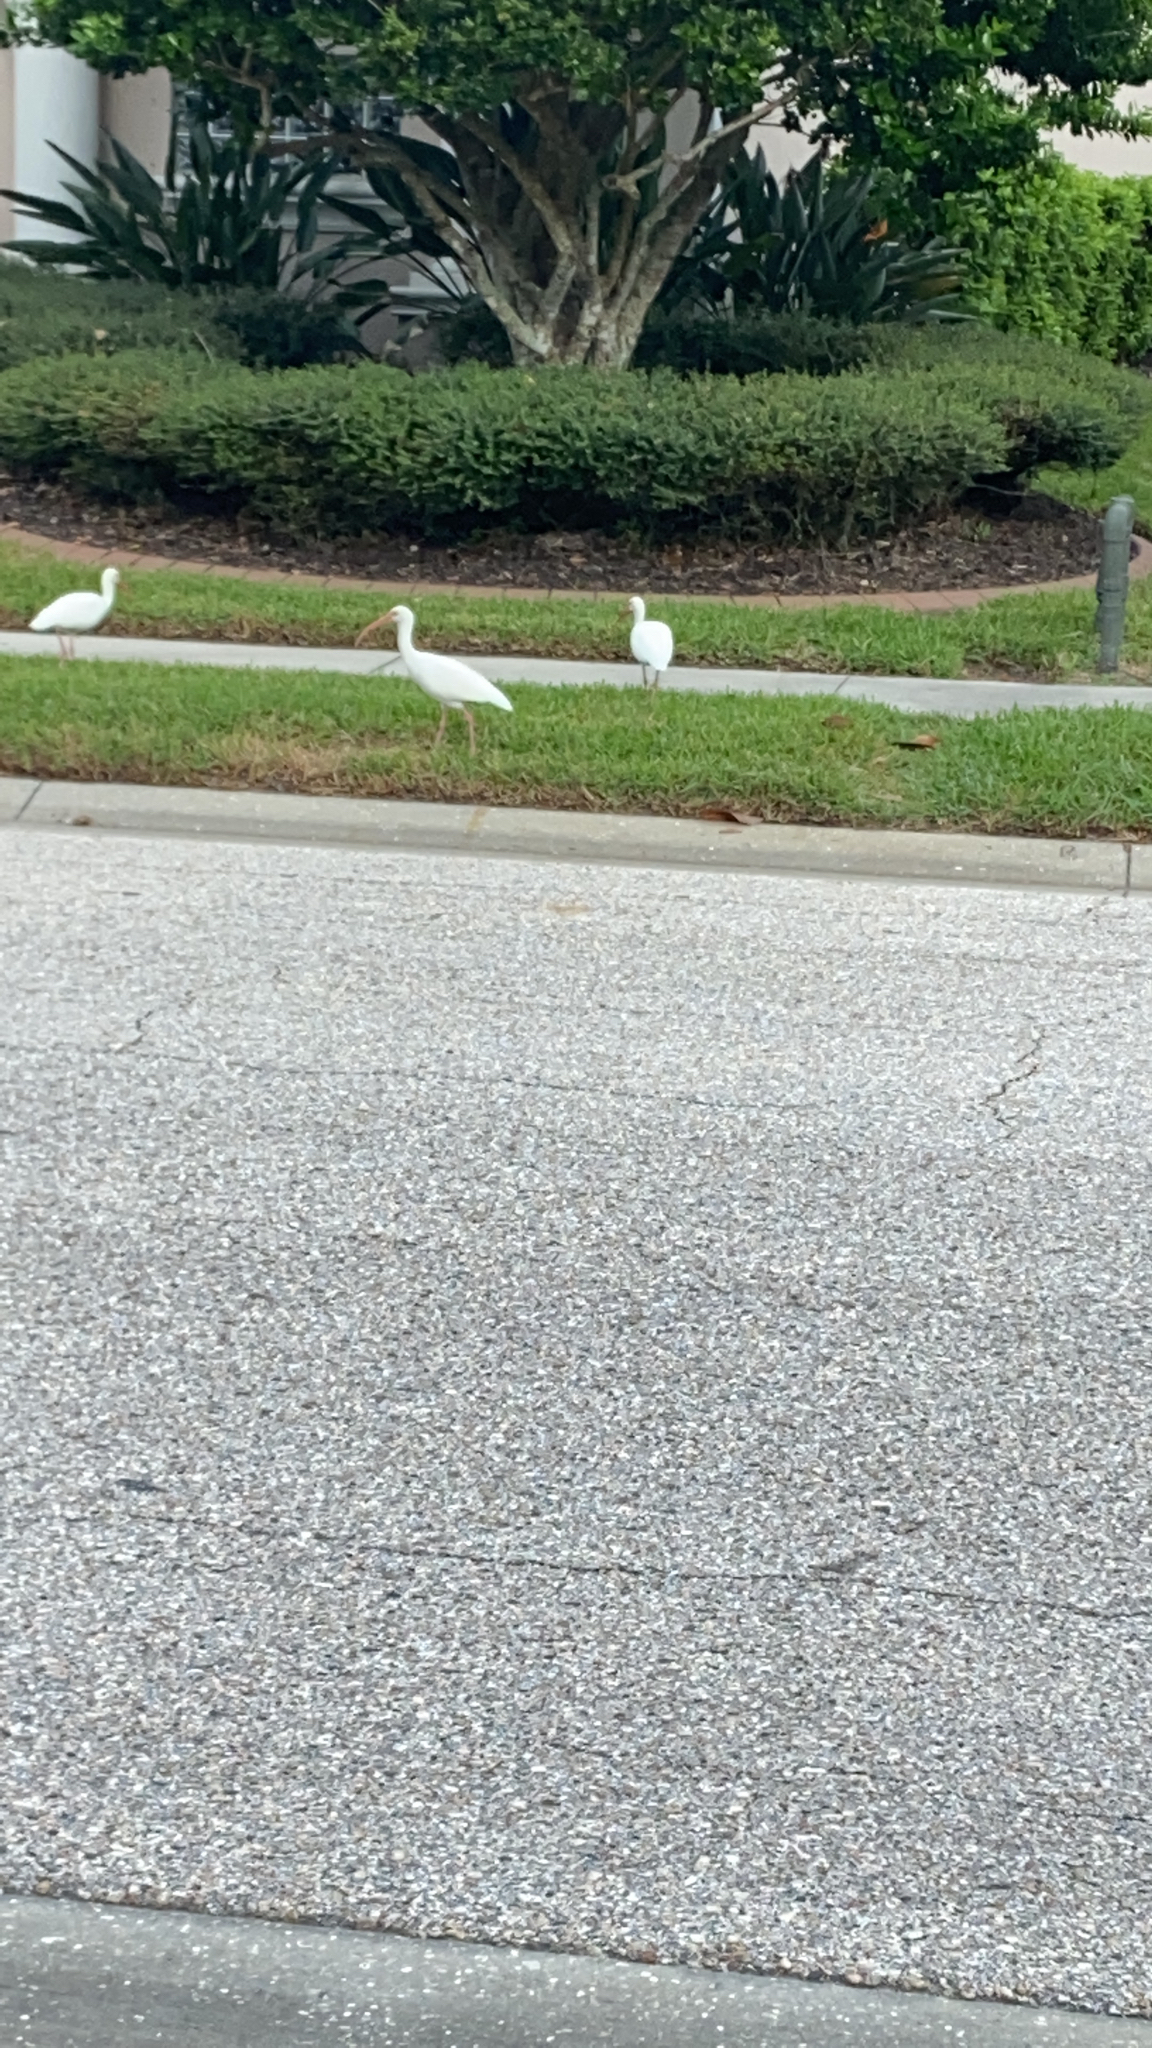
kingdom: Animalia
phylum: Chordata
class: Aves
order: Pelecaniformes
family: Threskiornithidae
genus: Eudocimus
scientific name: Eudocimus albus
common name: White ibis
